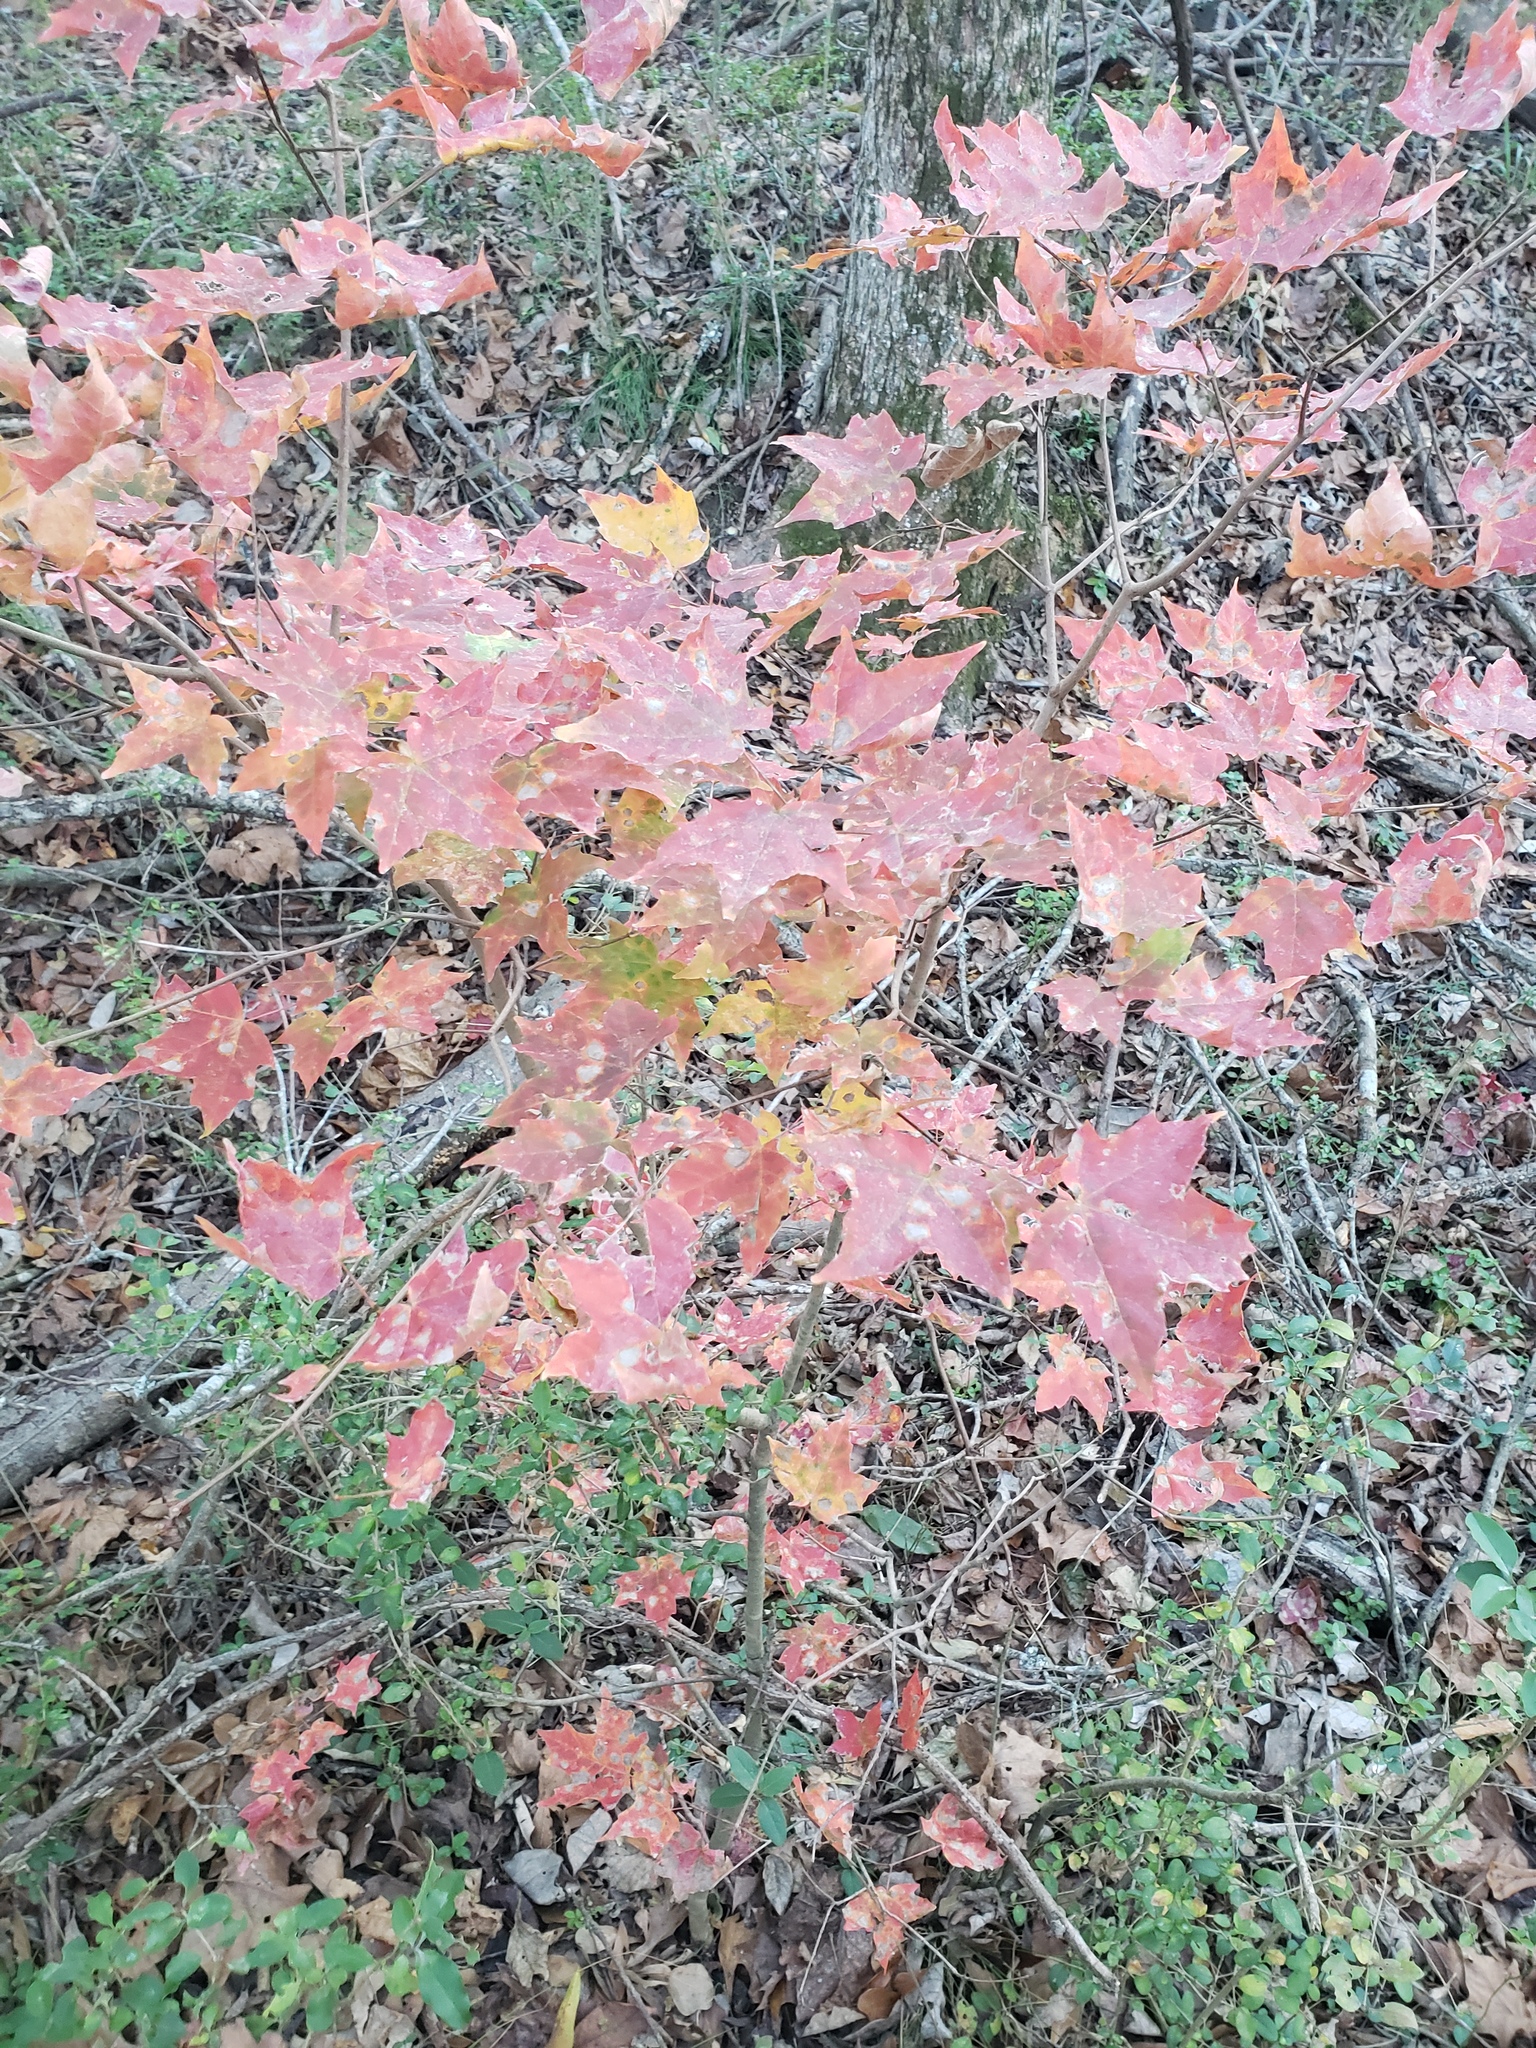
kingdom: Plantae
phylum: Tracheophyta
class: Magnoliopsida
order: Sapindales
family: Sapindaceae
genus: Acer
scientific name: Acer leucoderme
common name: Chalk maple
